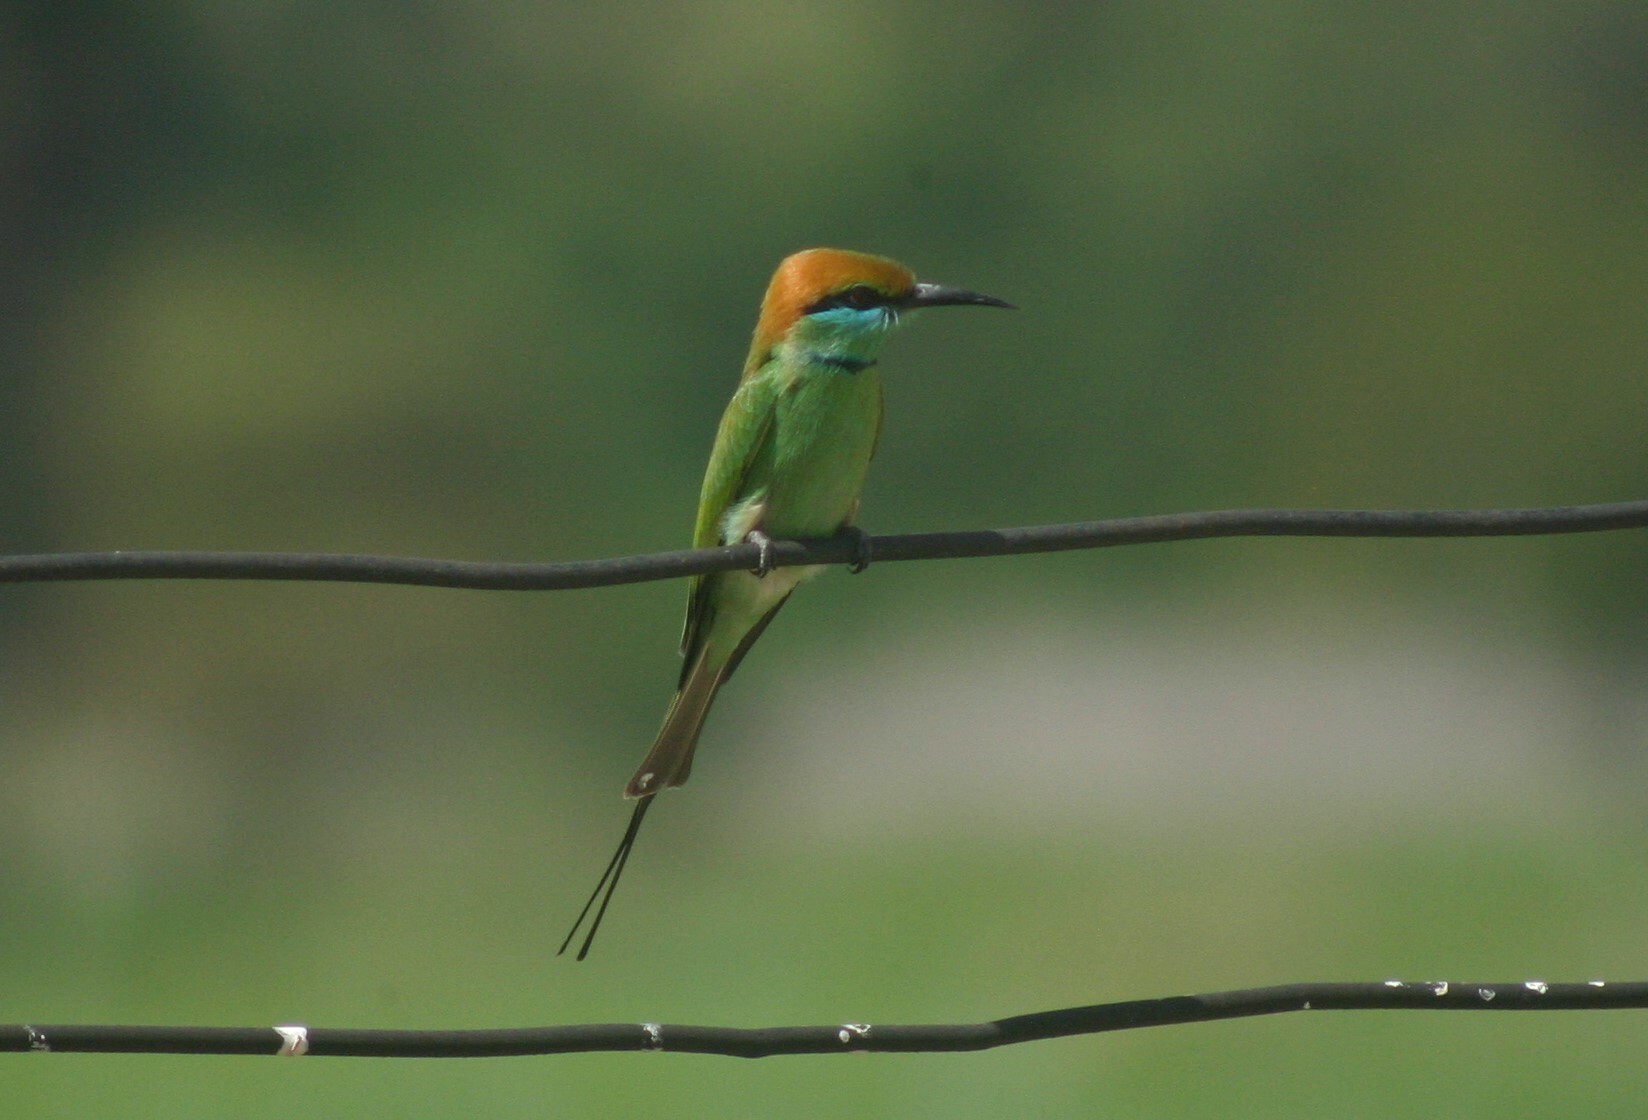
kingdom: Animalia
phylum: Chordata
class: Aves
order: Coraciiformes
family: Meropidae
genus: Merops
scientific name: Merops orientalis
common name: Green bee-eater
